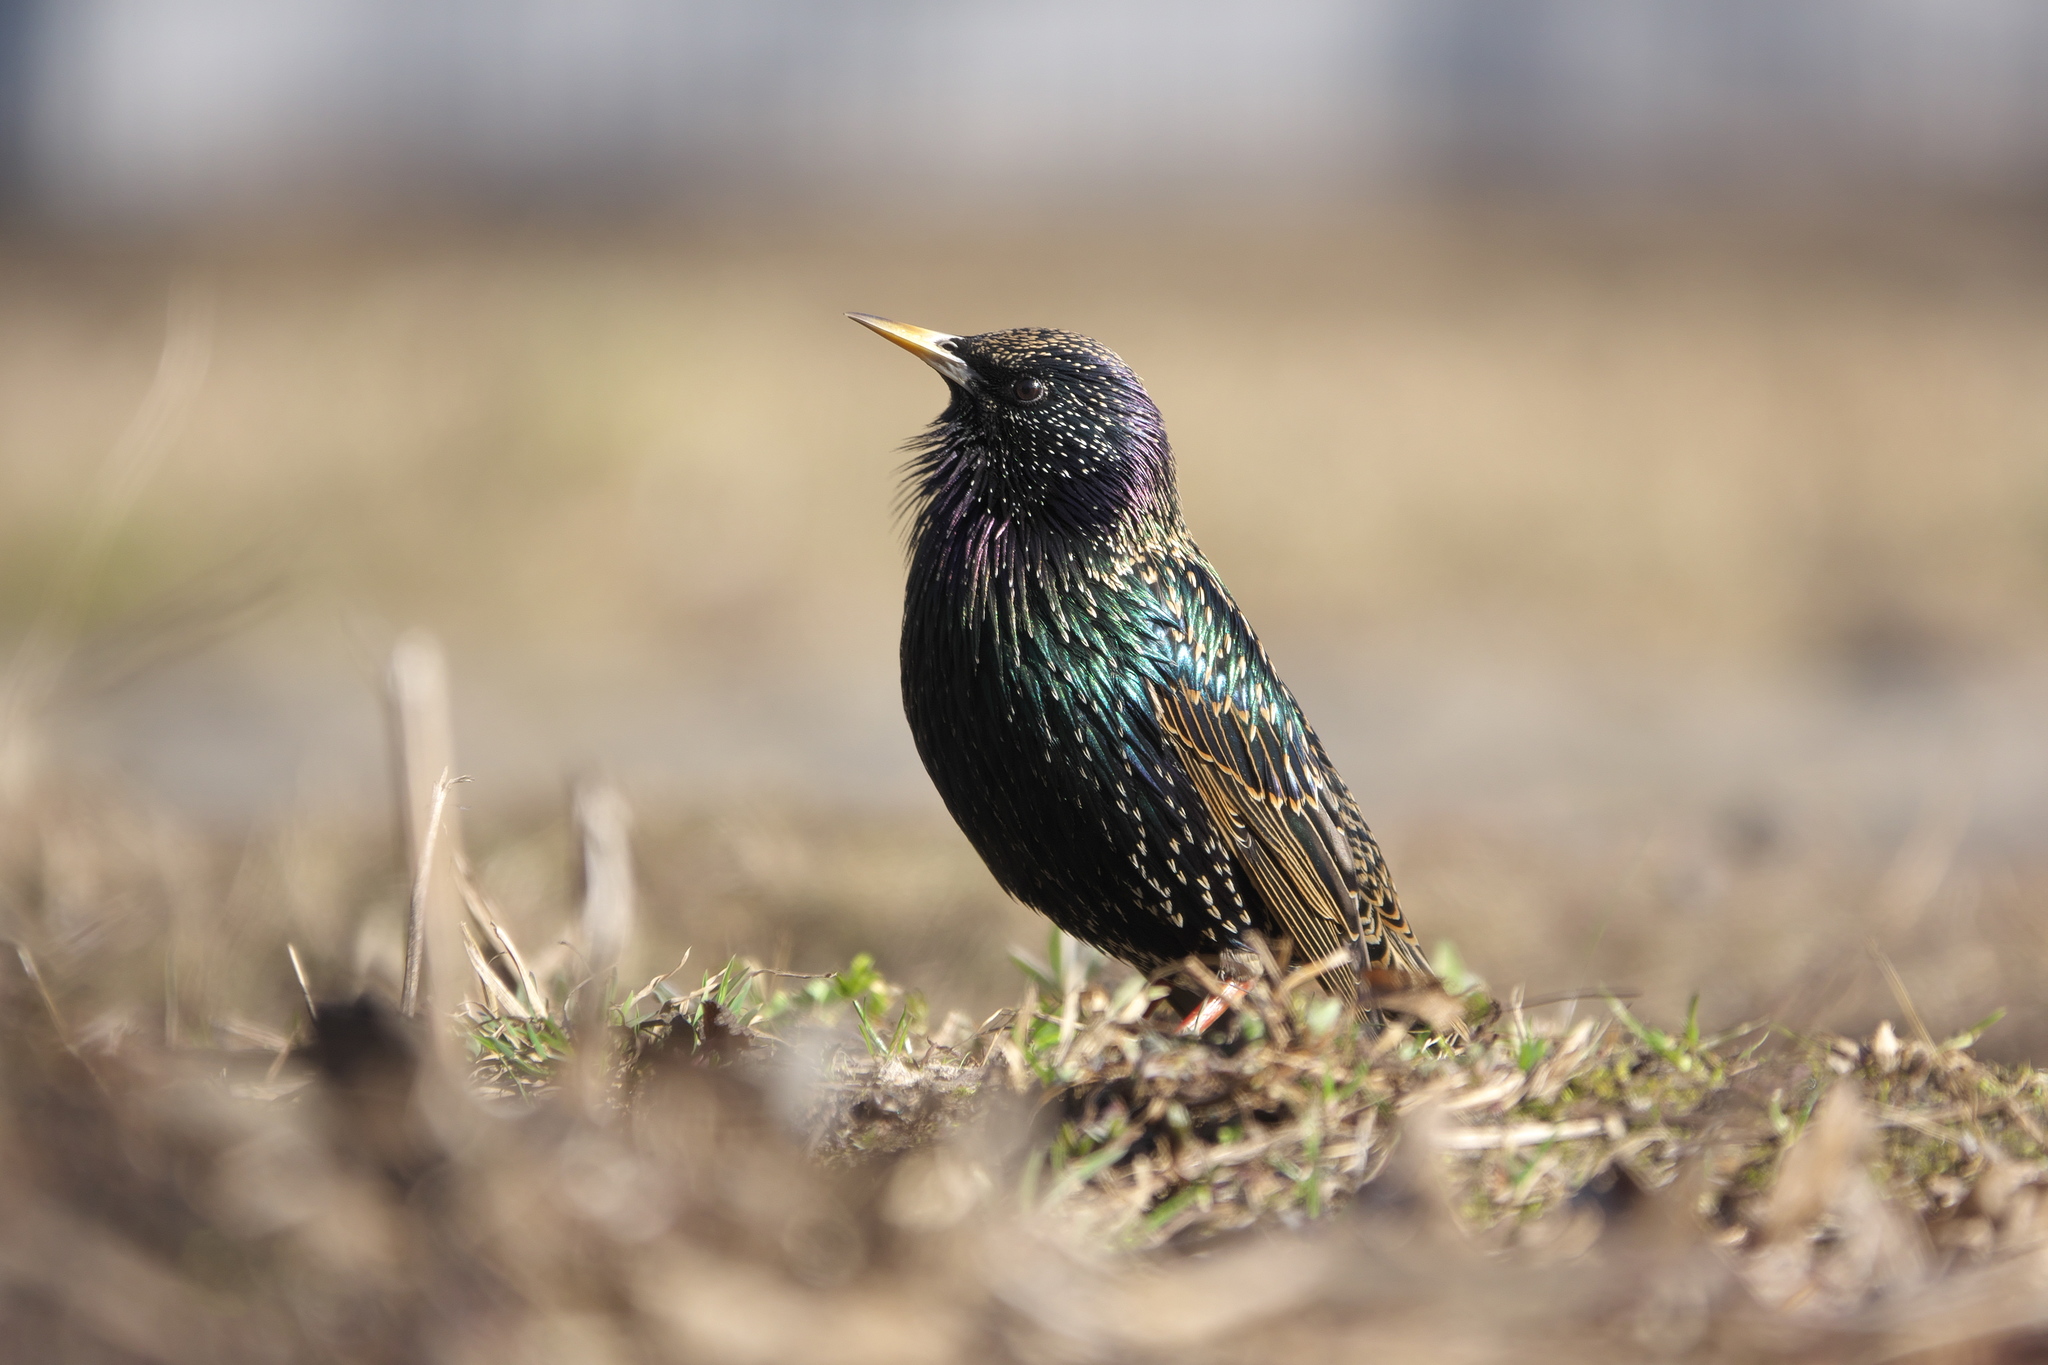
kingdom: Animalia
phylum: Chordata
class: Aves
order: Passeriformes
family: Sturnidae
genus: Sturnus
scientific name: Sturnus vulgaris
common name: Common starling
